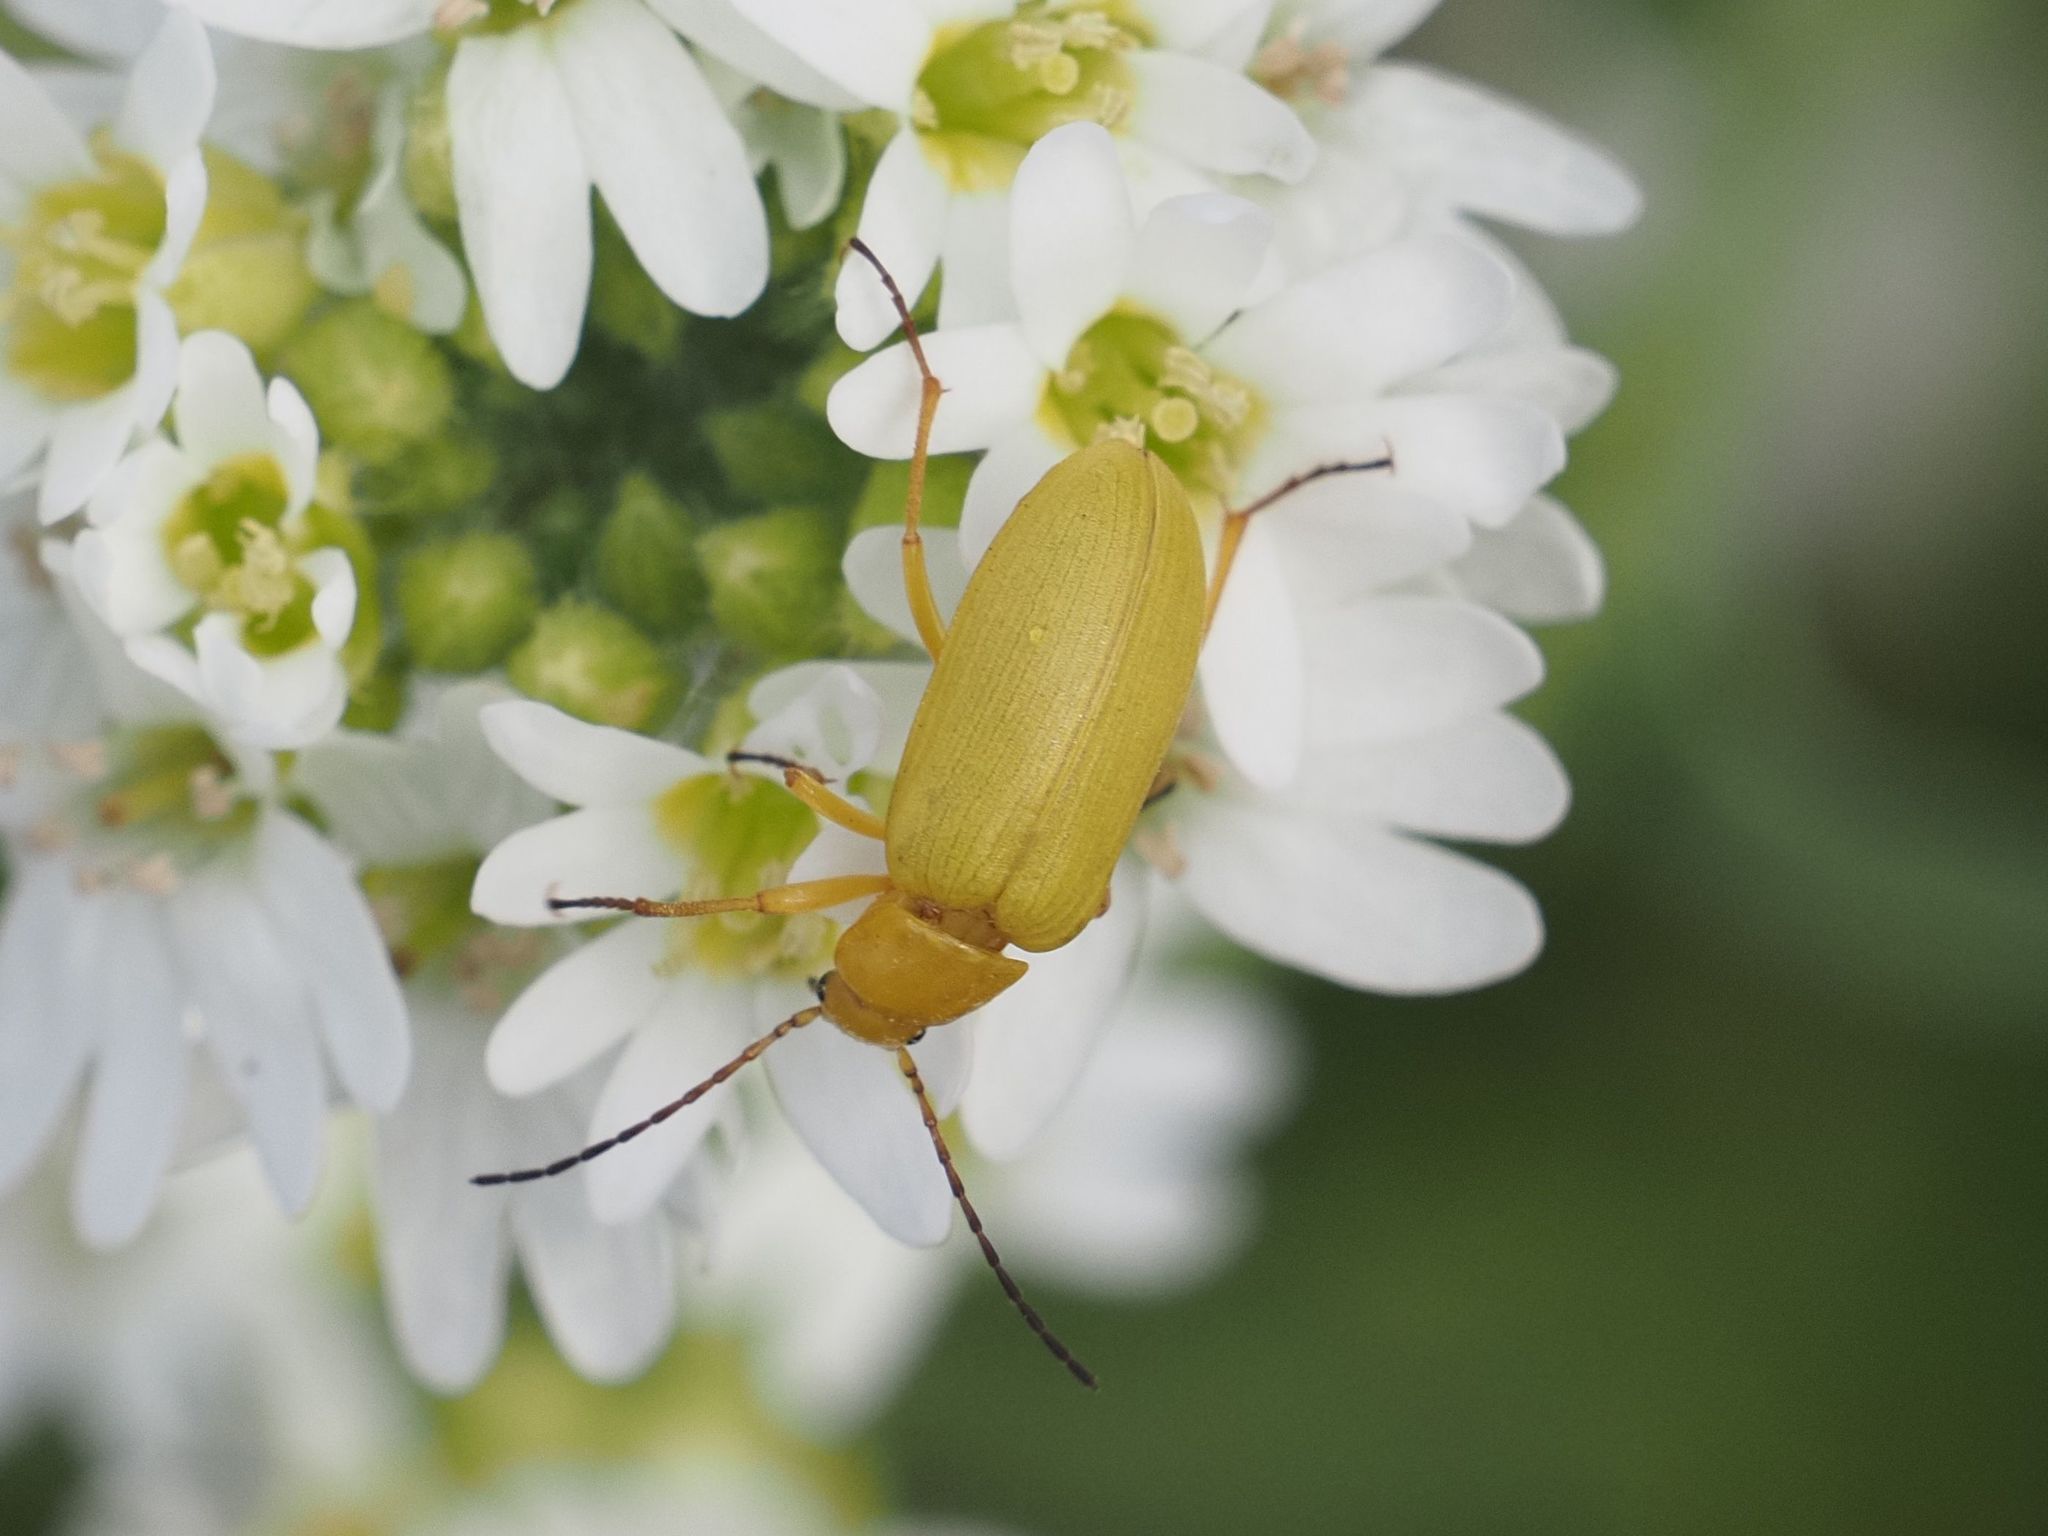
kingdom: Animalia
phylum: Arthropoda
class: Insecta
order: Coleoptera
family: Tenebrionidae
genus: Cteniopus
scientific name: Cteniopus sulphureus
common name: Sulphur beetle
